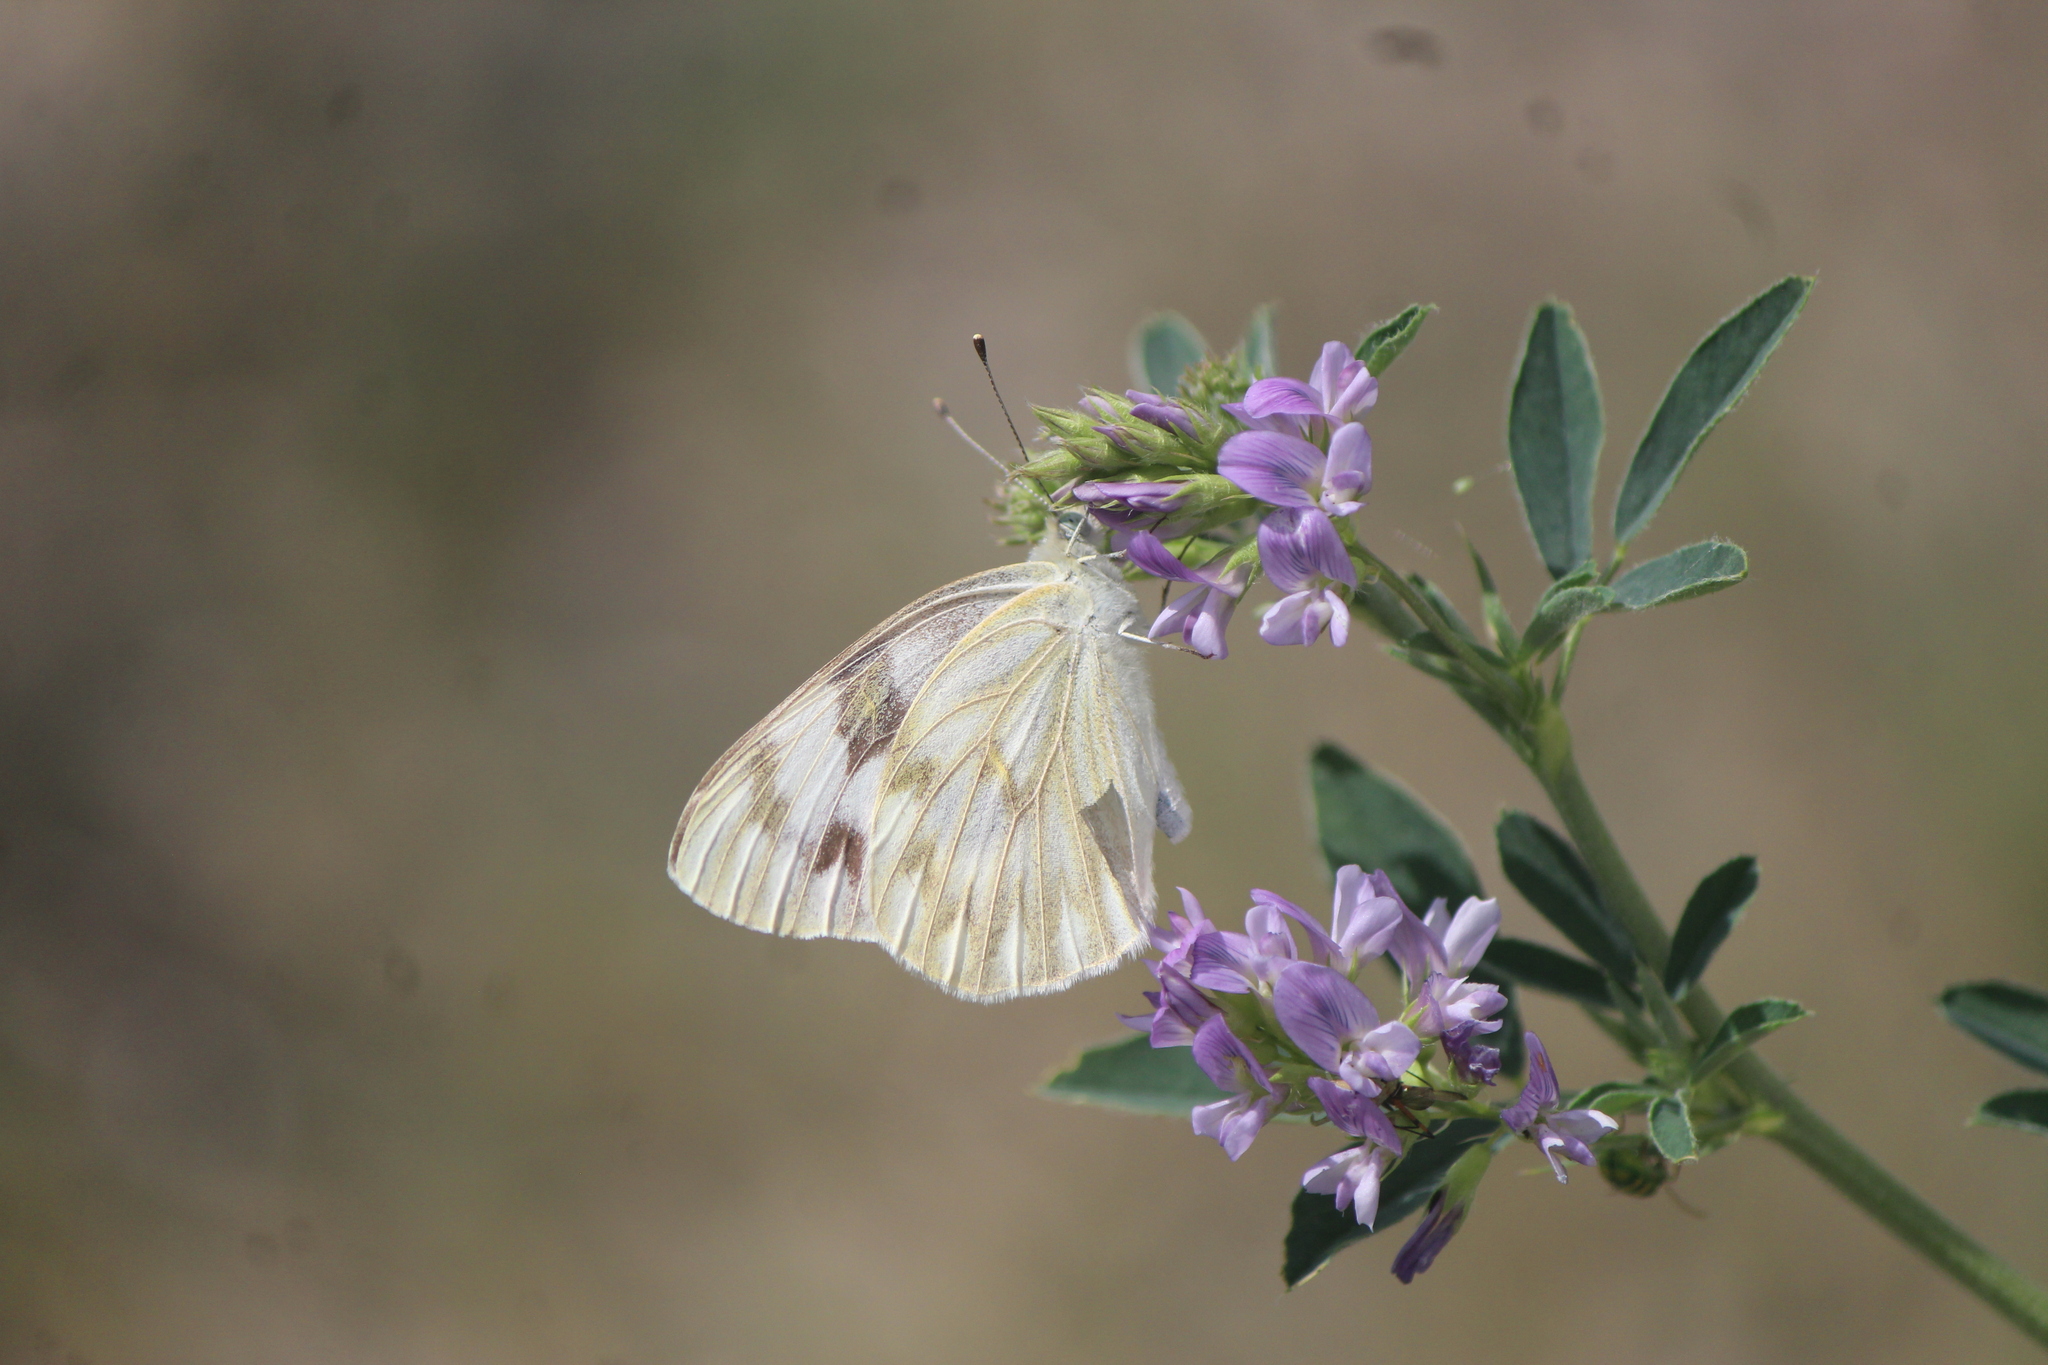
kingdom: Animalia
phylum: Arthropoda
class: Insecta
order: Lepidoptera
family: Pieridae
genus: Pontia
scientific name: Pontia protodice
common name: Checkered white
